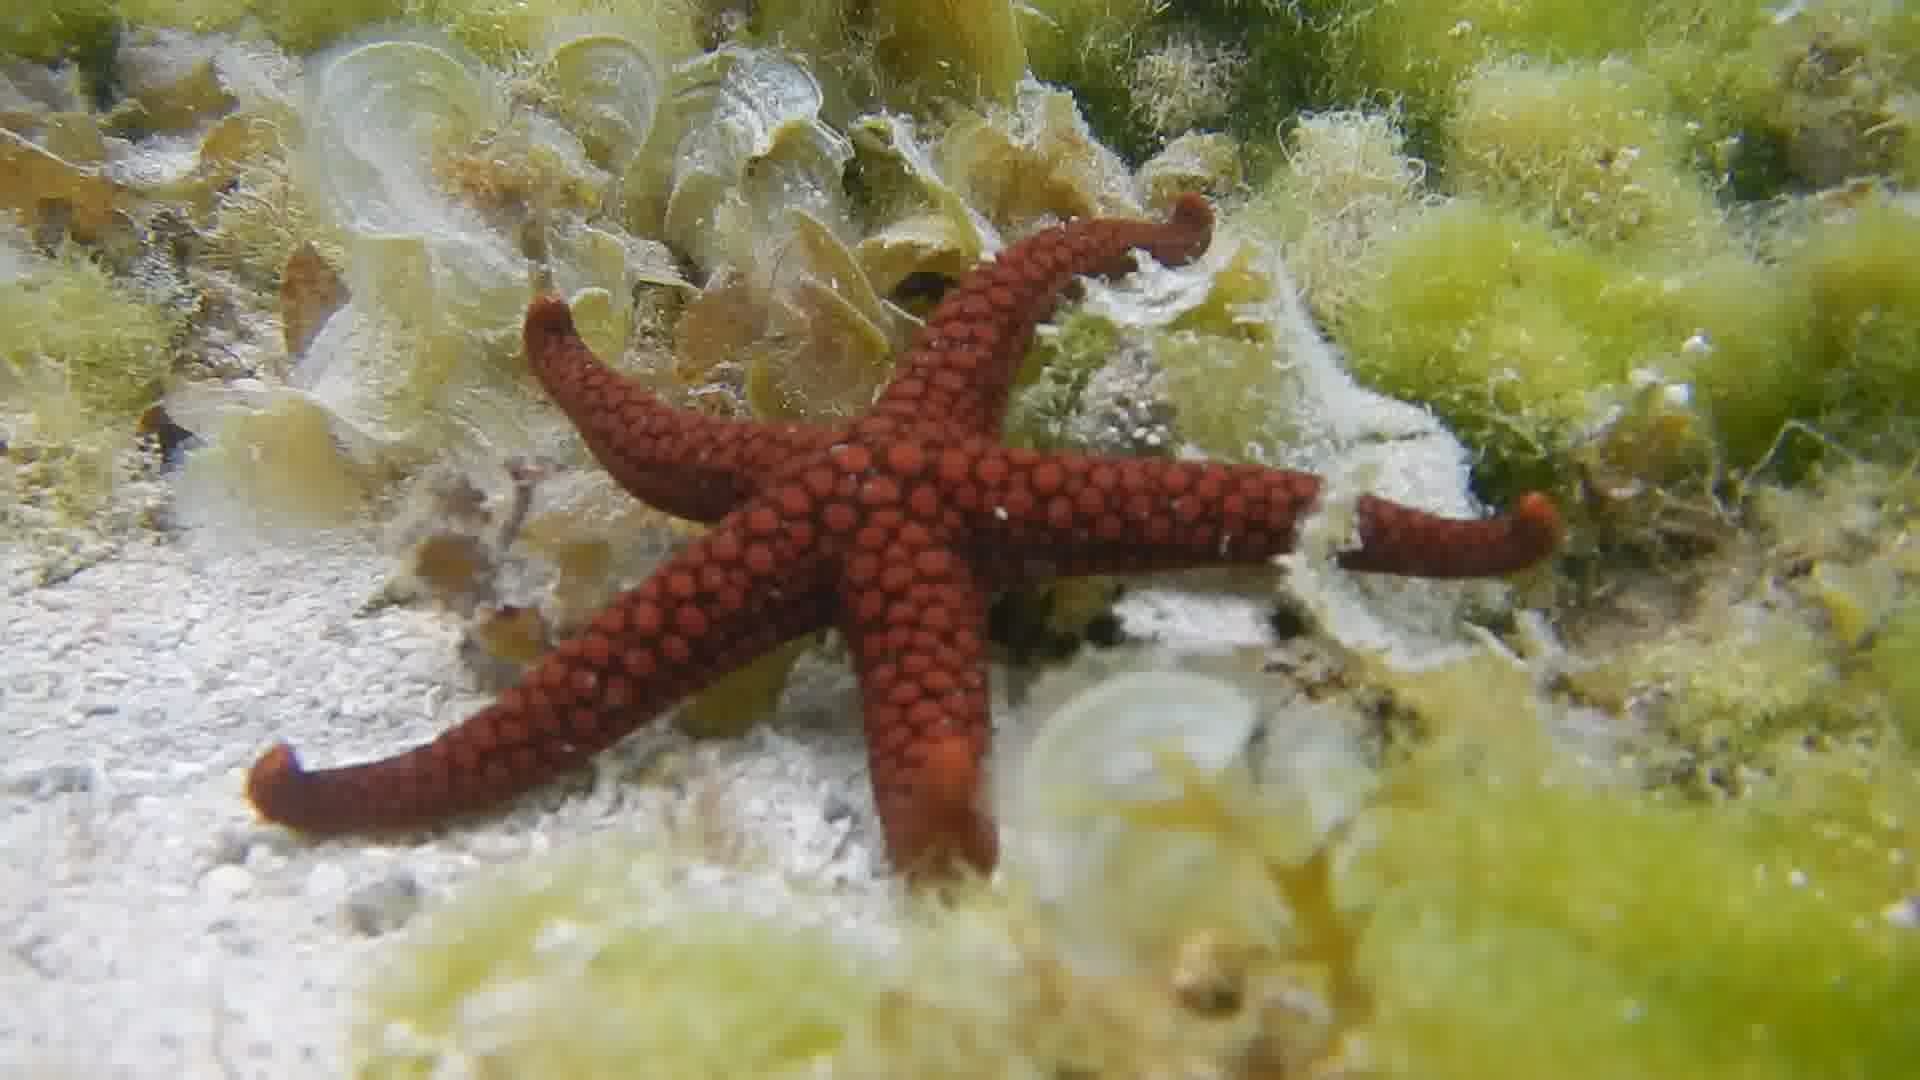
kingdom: Animalia
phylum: Echinodermata
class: Asteroidea
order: Valvatida
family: Ophidiasteridae
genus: Nardoa
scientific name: Nardoa variolata
